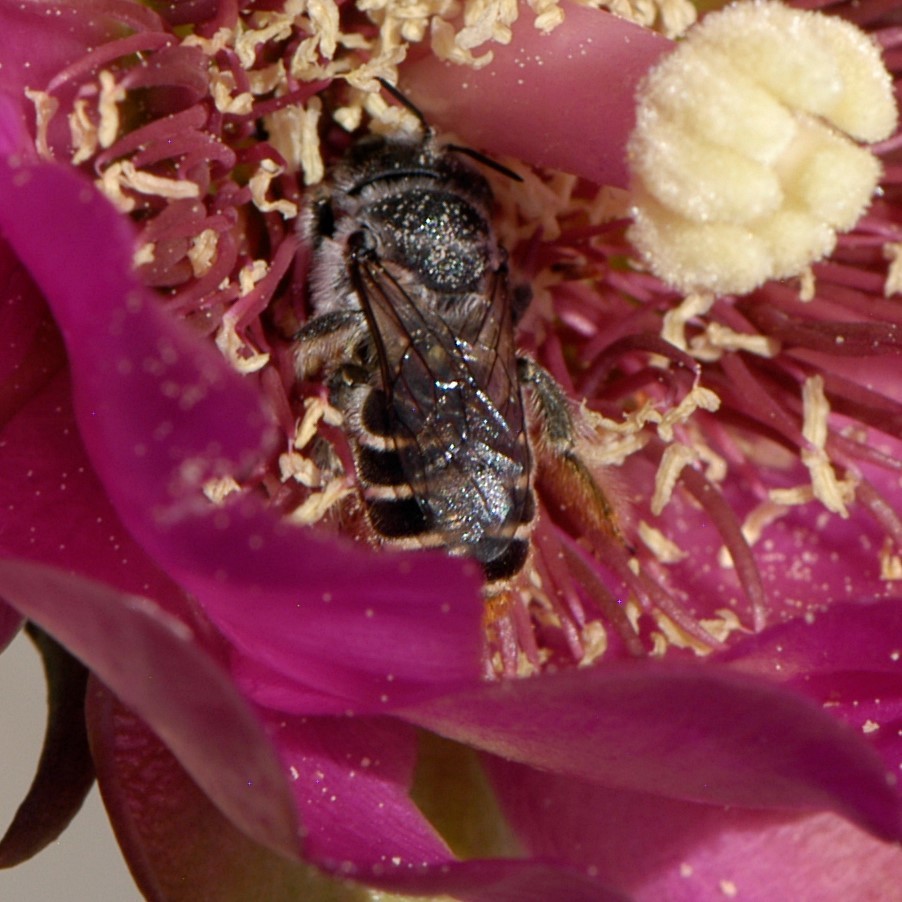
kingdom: Animalia
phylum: Arthropoda
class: Insecta
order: Hymenoptera
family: Megachilidae
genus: Lithurgopsis
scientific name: Lithurgopsis apicalis
